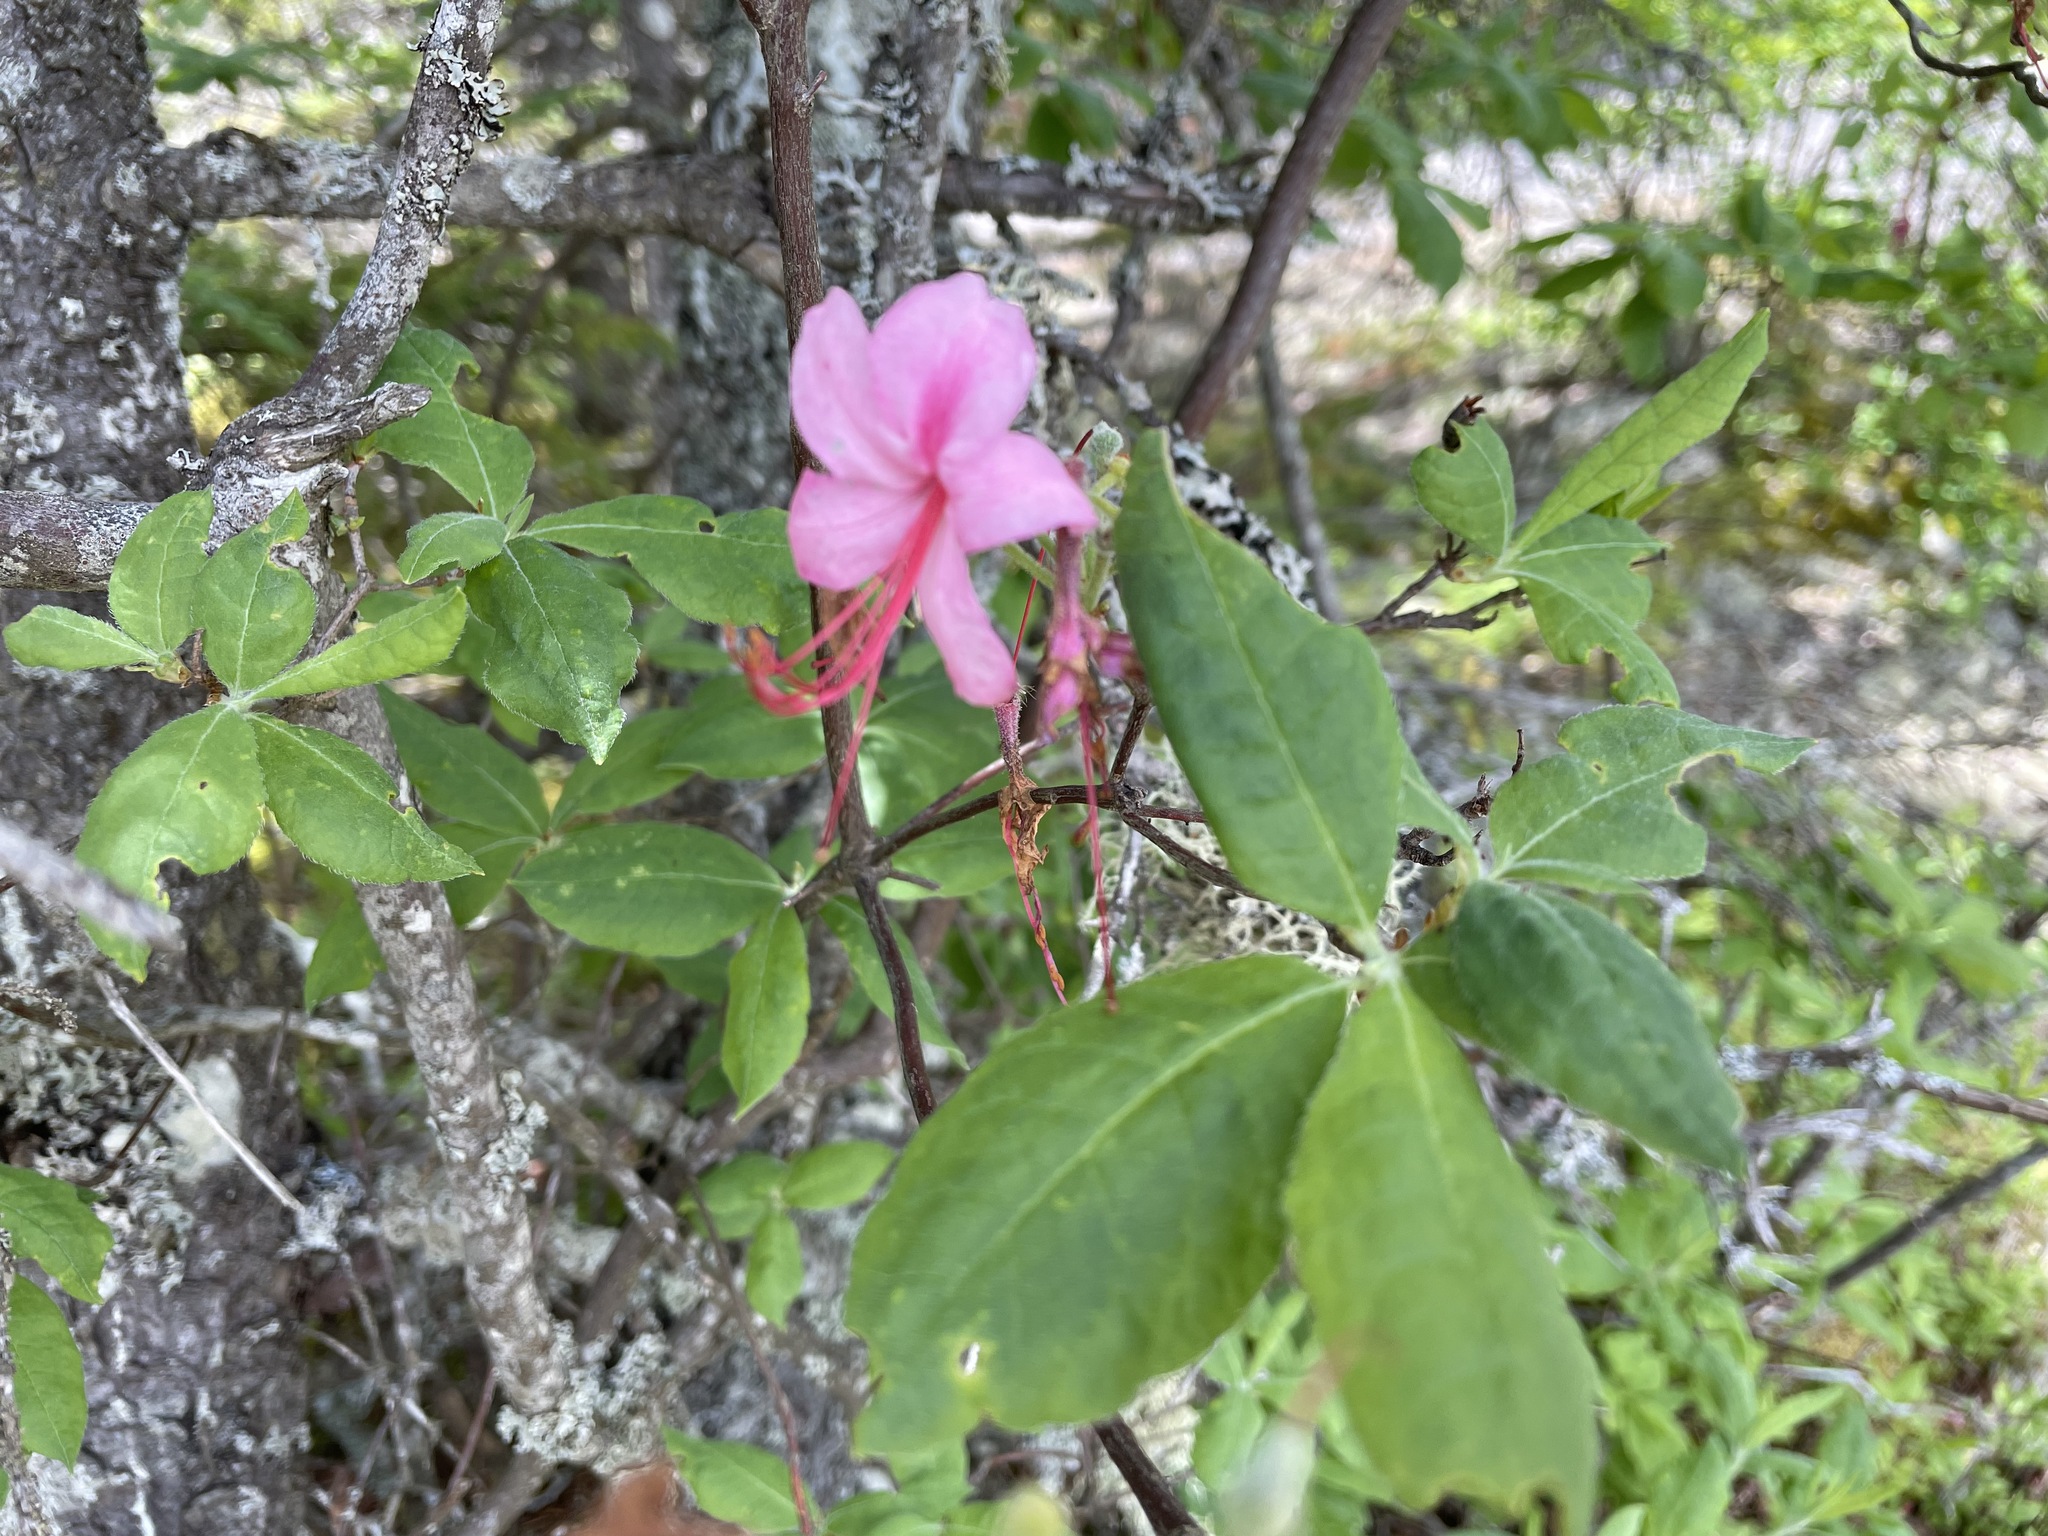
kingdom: Plantae
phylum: Tracheophyta
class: Magnoliopsida
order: Ericales
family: Ericaceae
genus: Rhododendron
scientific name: Rhododendron roseum
